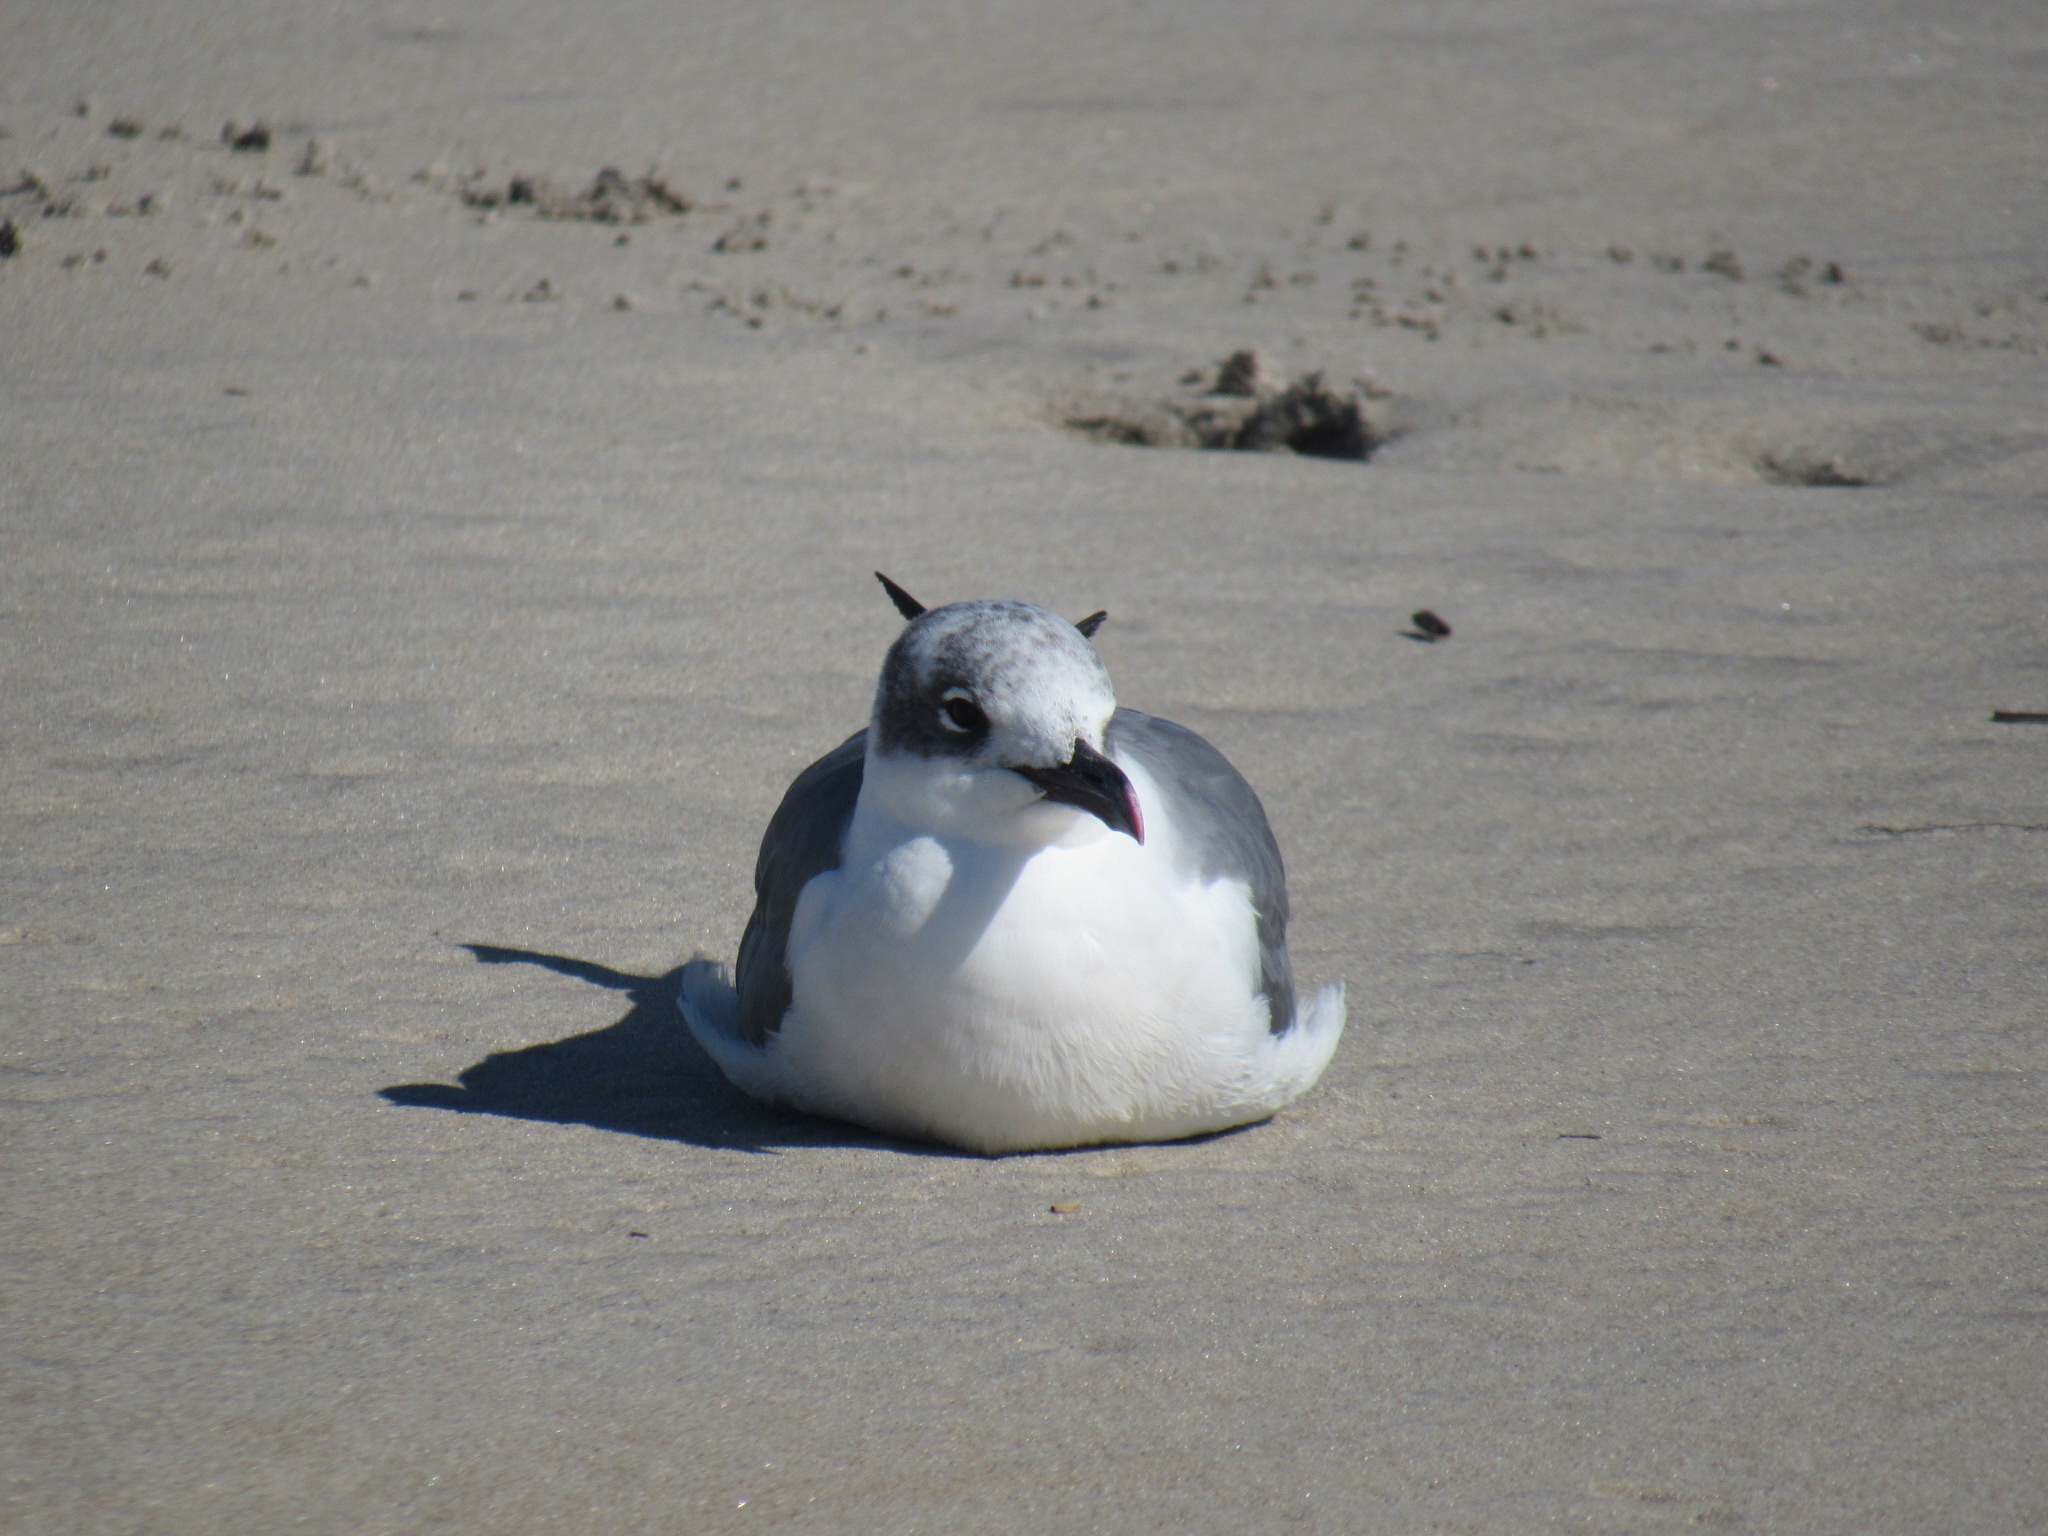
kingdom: Animalia
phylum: Chordata
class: Aves
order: Charadriiformes
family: Laridae
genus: Leucophaeus
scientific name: Leucophaeus atricilla
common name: Laughing gull
